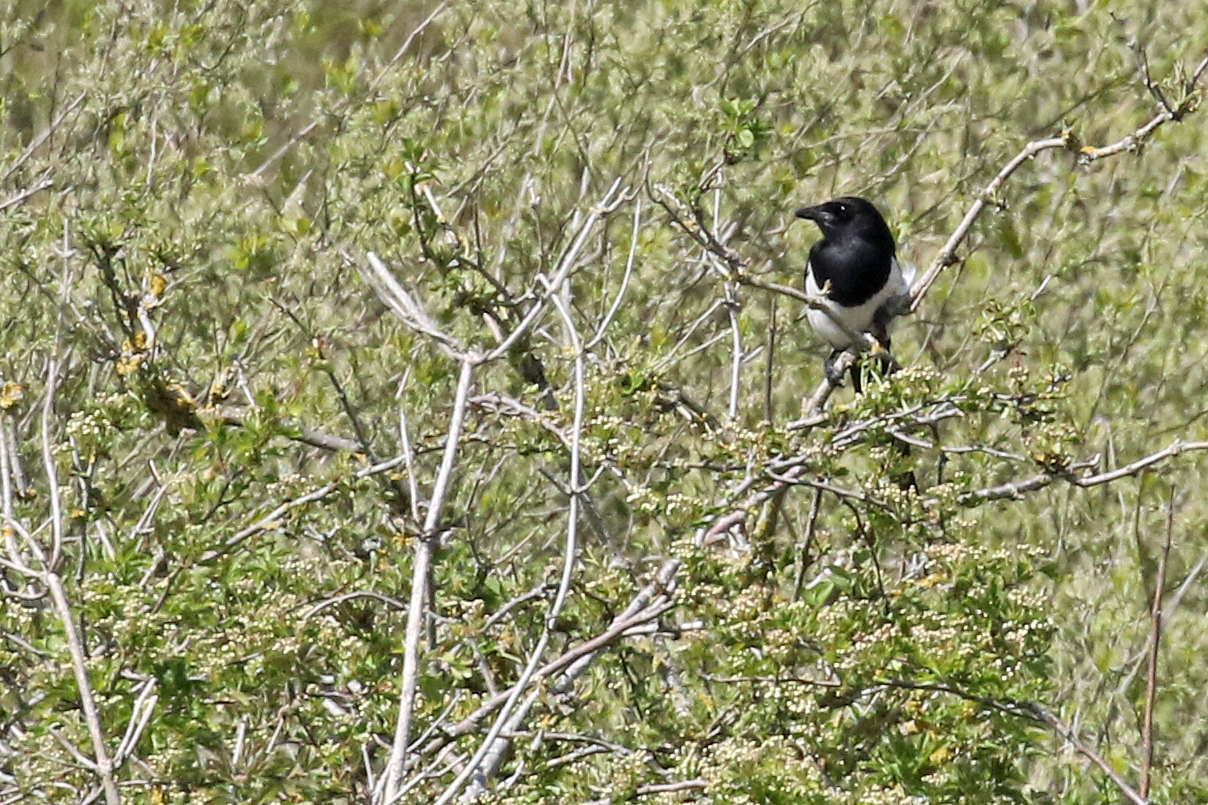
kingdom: Animalia
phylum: Chordata
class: Aves
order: Passeriformes
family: Corvidae
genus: Pica
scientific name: Pica pica
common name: Eurasian magpie
